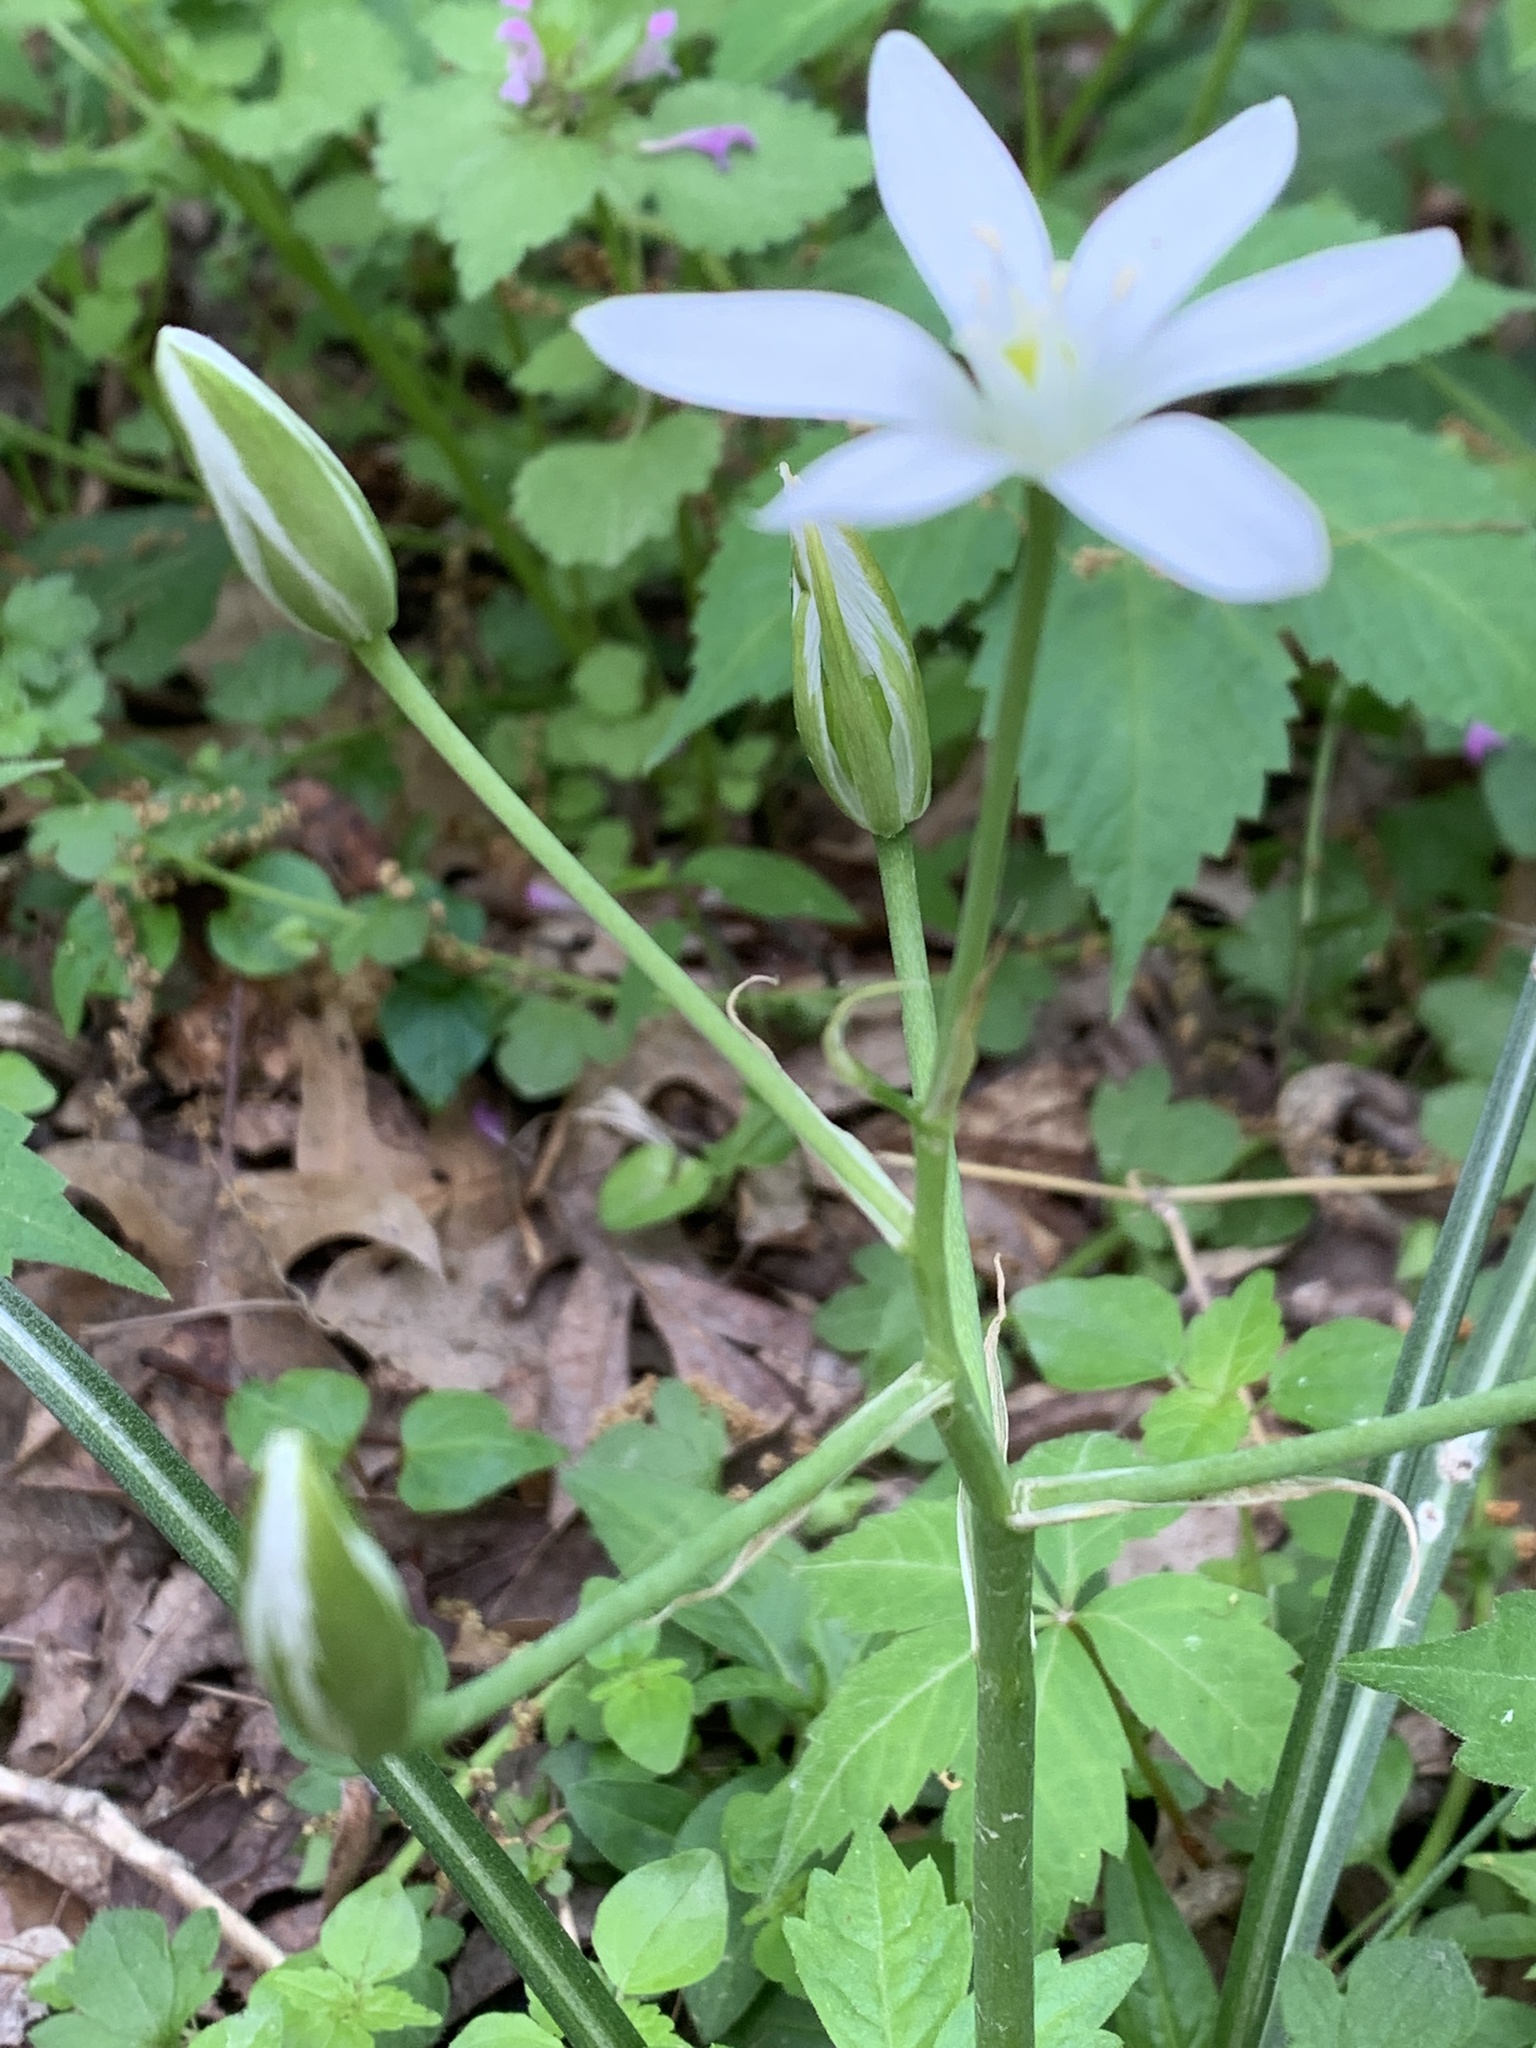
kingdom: Plantae
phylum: Tracheophyta
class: Liliopsida
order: Asparagales
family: Asparagaceae
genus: Ornithogalum
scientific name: Ornithogalum umbellatum
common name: Garden star-of-bethlehem
